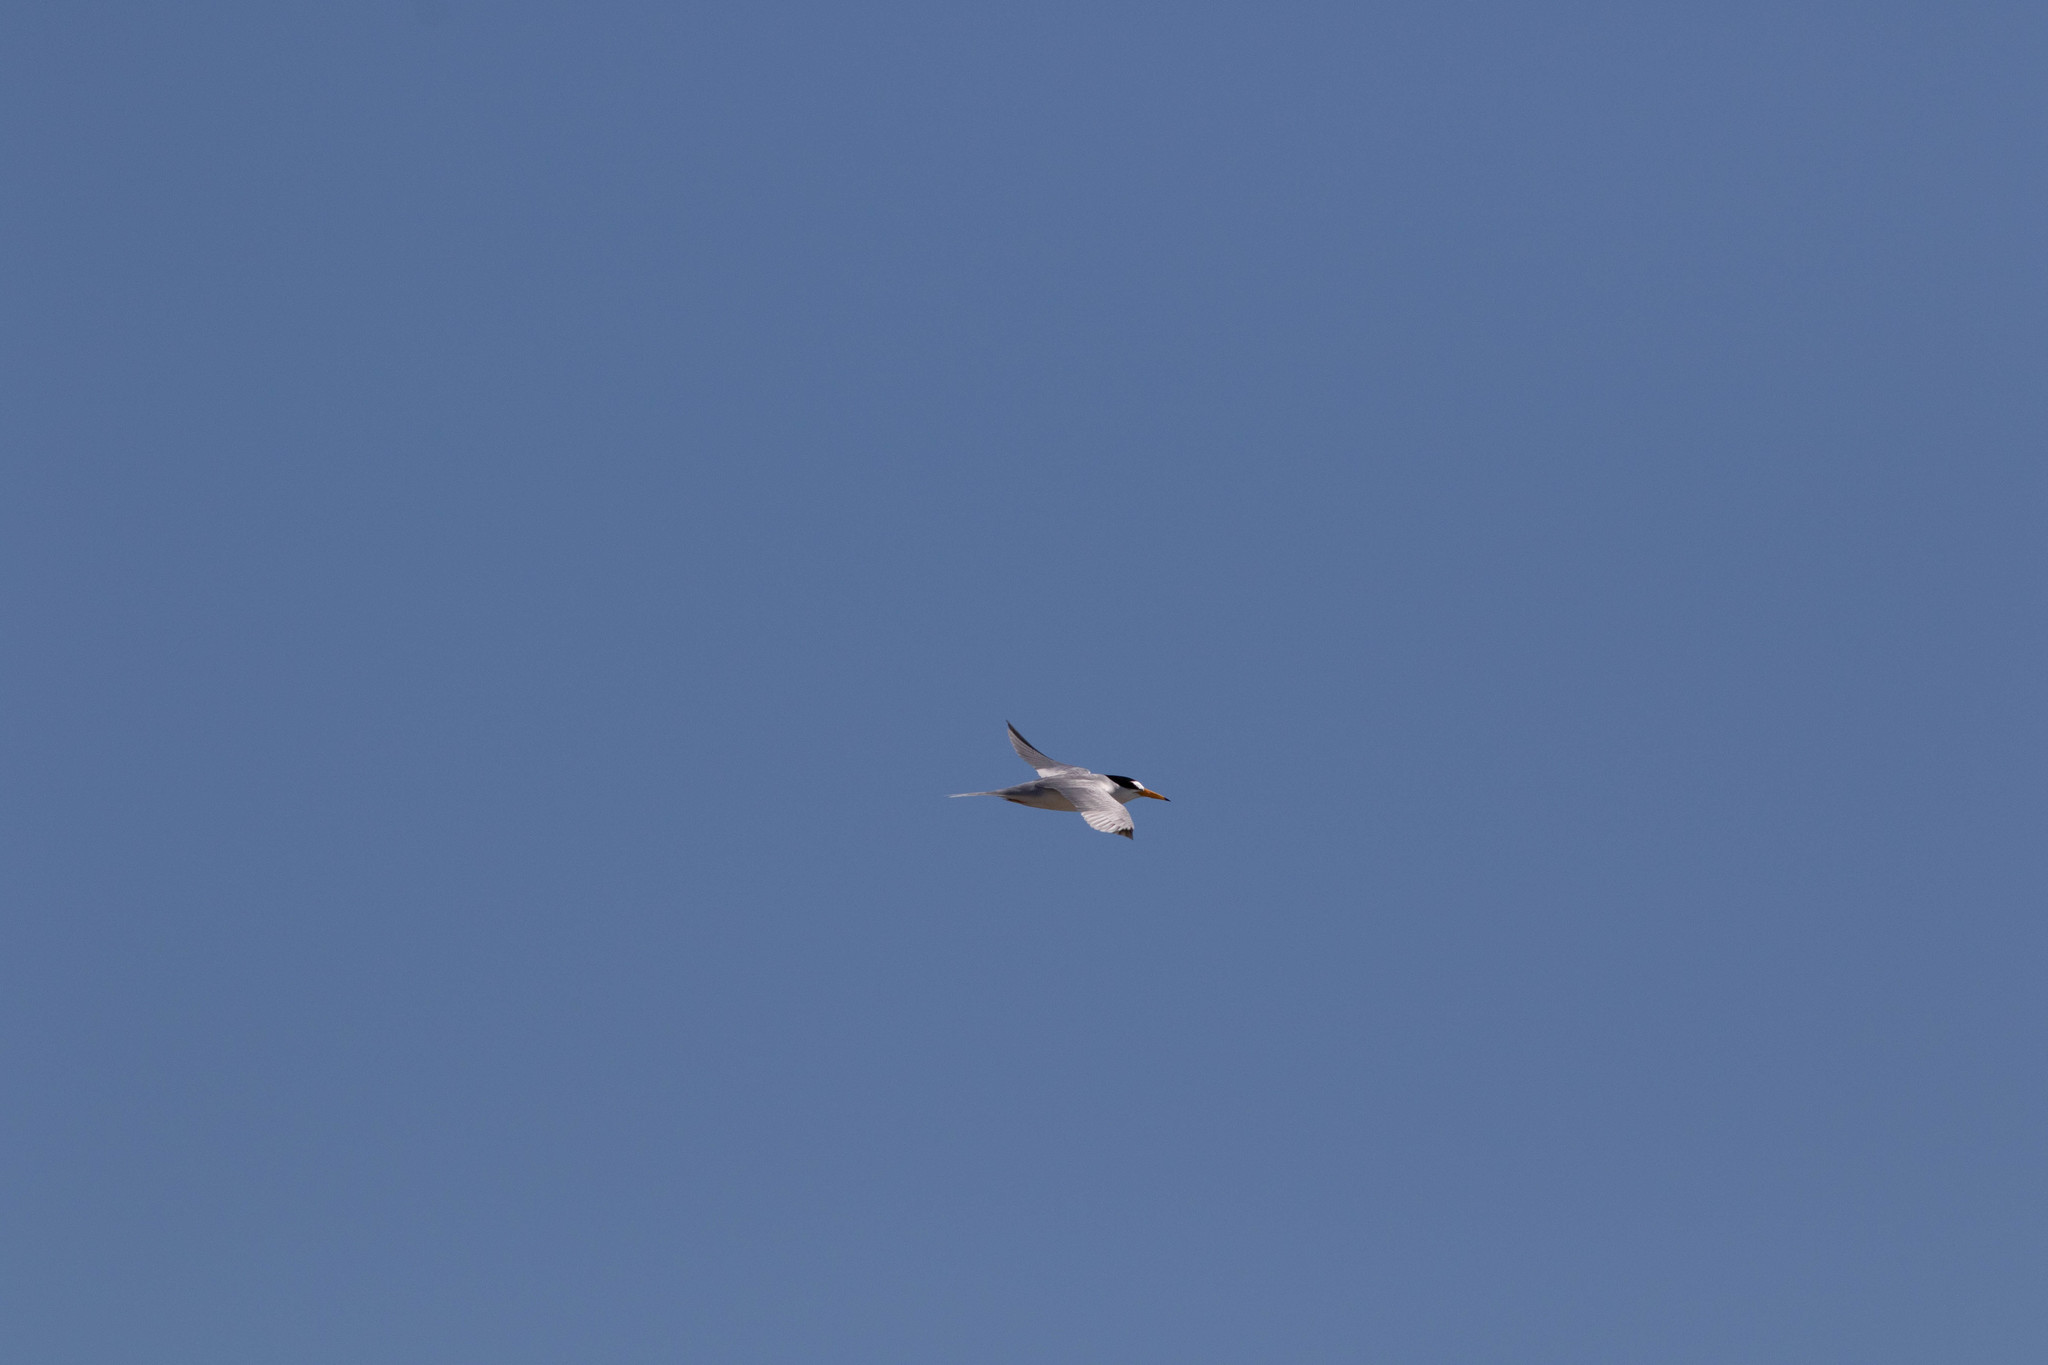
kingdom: Animalia
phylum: Chordata
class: Aves
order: Charadriiformes
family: Laridae
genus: Sternula
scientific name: Sternula antillarum
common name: Least tern
